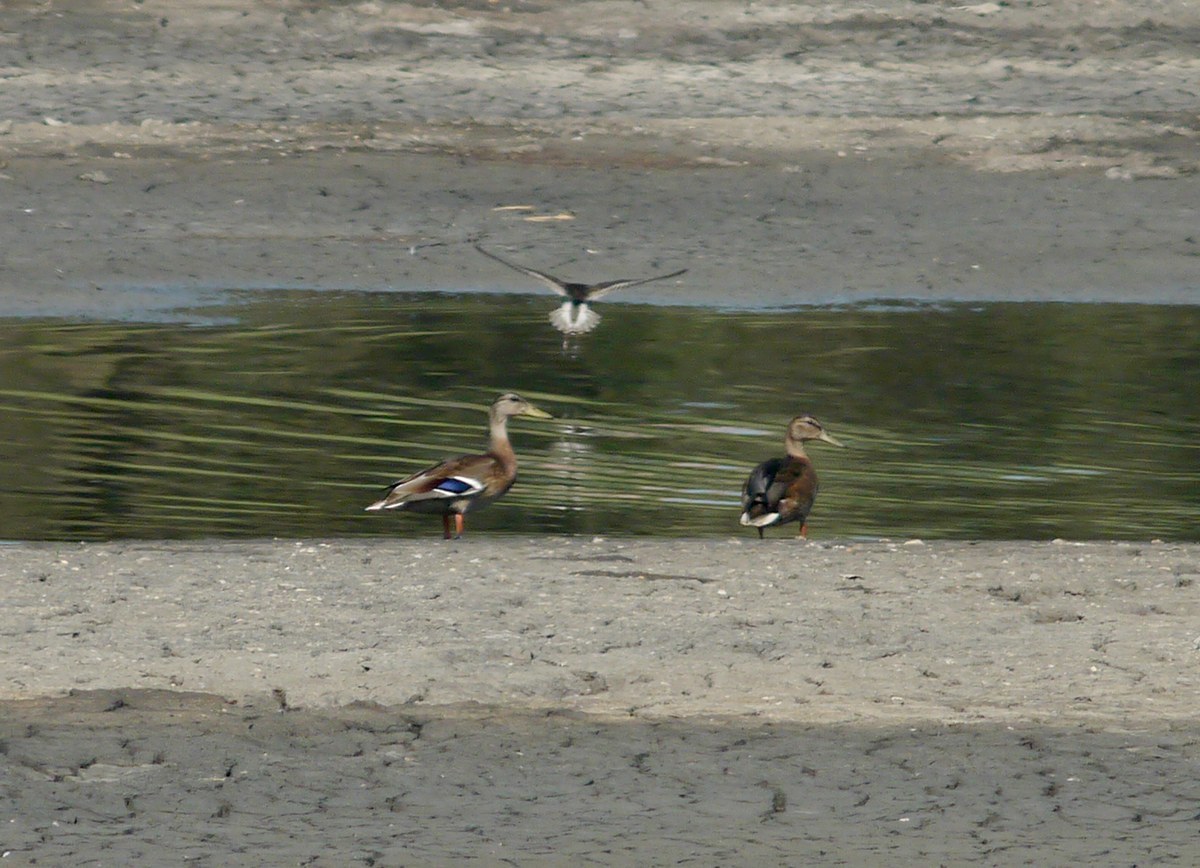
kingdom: Animalia
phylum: Chordata
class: Aves
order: Anseriformes
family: Anatidae
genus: Anas
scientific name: Anas platyrhynchos
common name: Mallard
